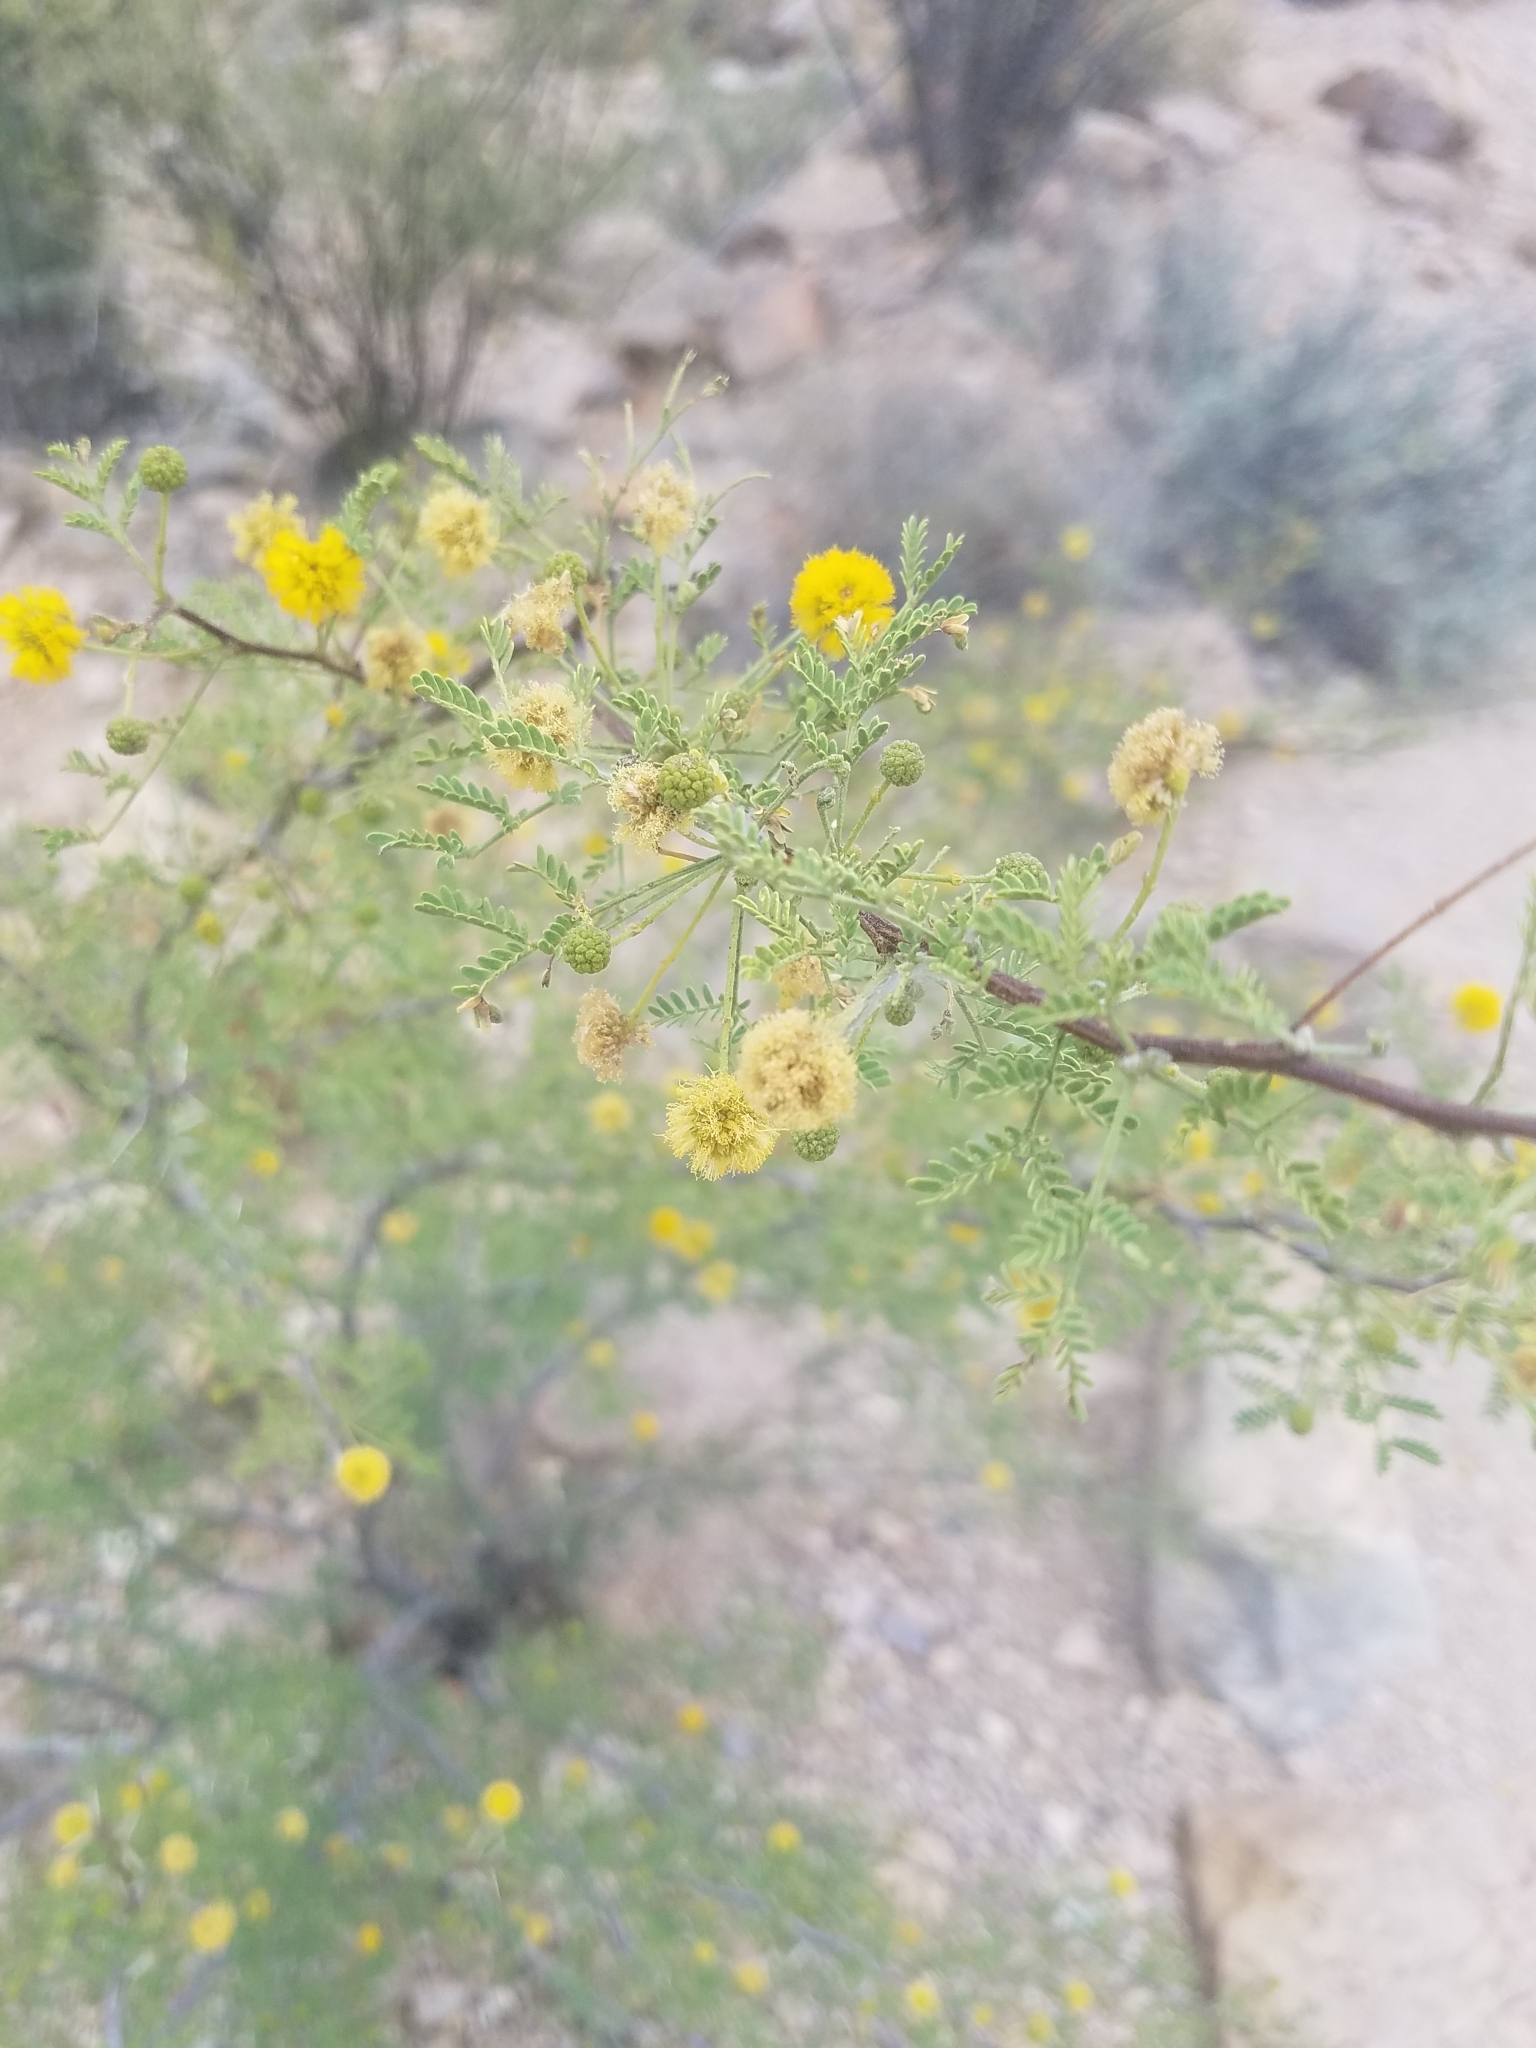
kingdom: Plantae
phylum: Tracheophyta
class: Magnoliopsida
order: Fabales
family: Fabaceae
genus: Vachellia
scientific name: Vachellia constricta
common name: Mescat acacia
